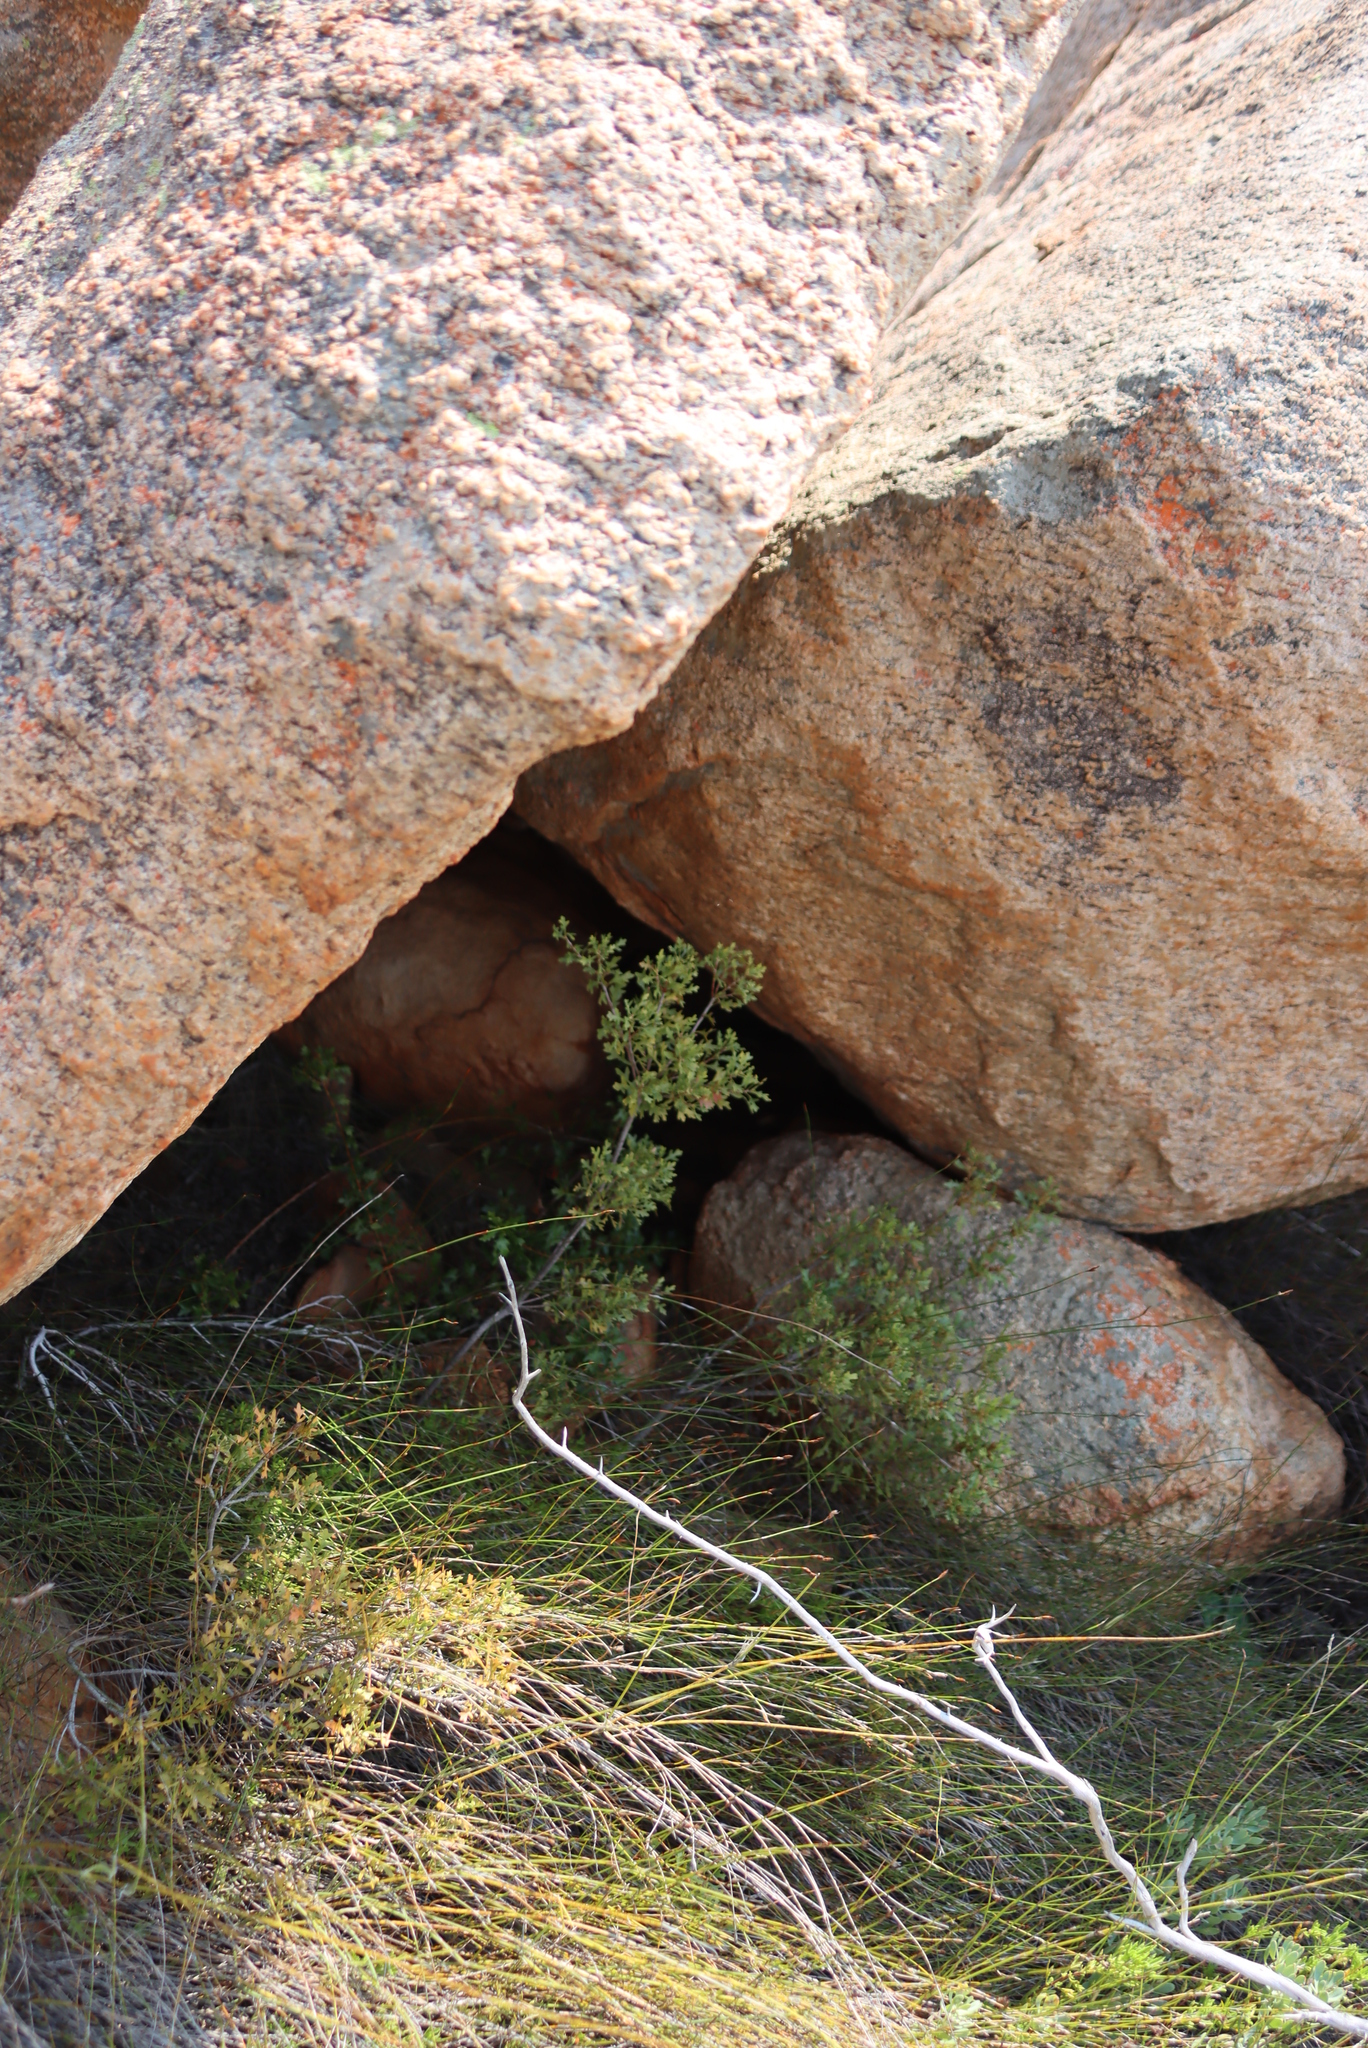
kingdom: Plantae
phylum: Tracheophyta
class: Magnoliopsida
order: Fagales
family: Myricaceae
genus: Morella
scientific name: Morella quercifolia
